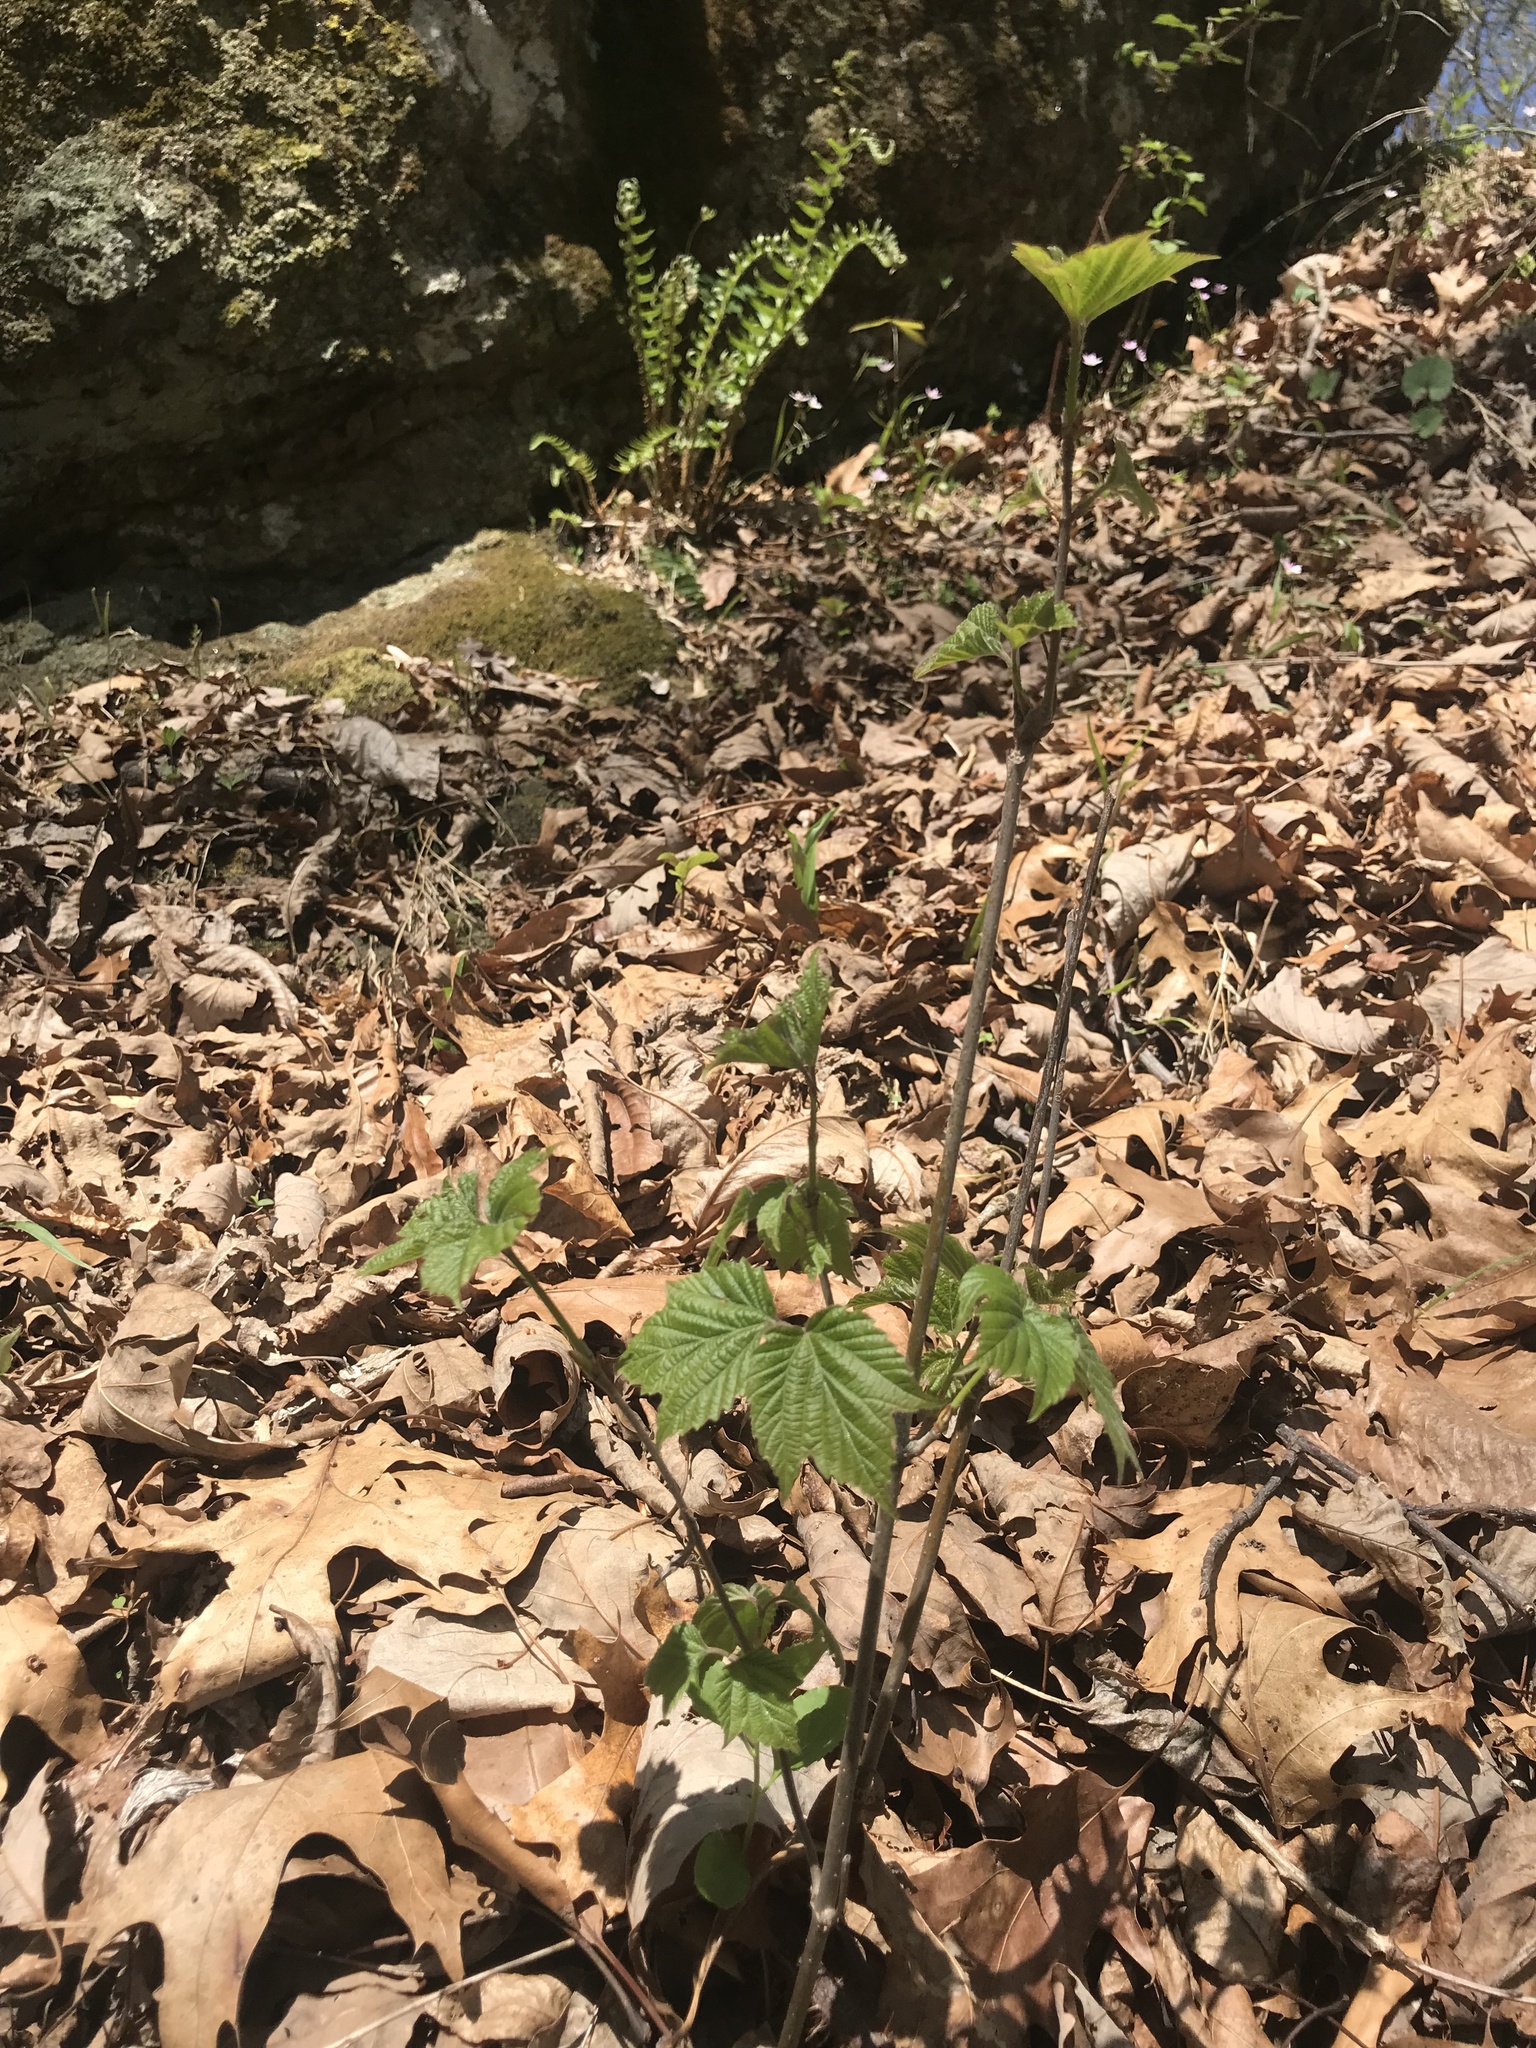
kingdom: Plantae
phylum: Tracheophyta
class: Magnoliopsida
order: Dipsacales
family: Viburnaceae
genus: Viburnum
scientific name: Viburnum acerifolium
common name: Dockmackie
